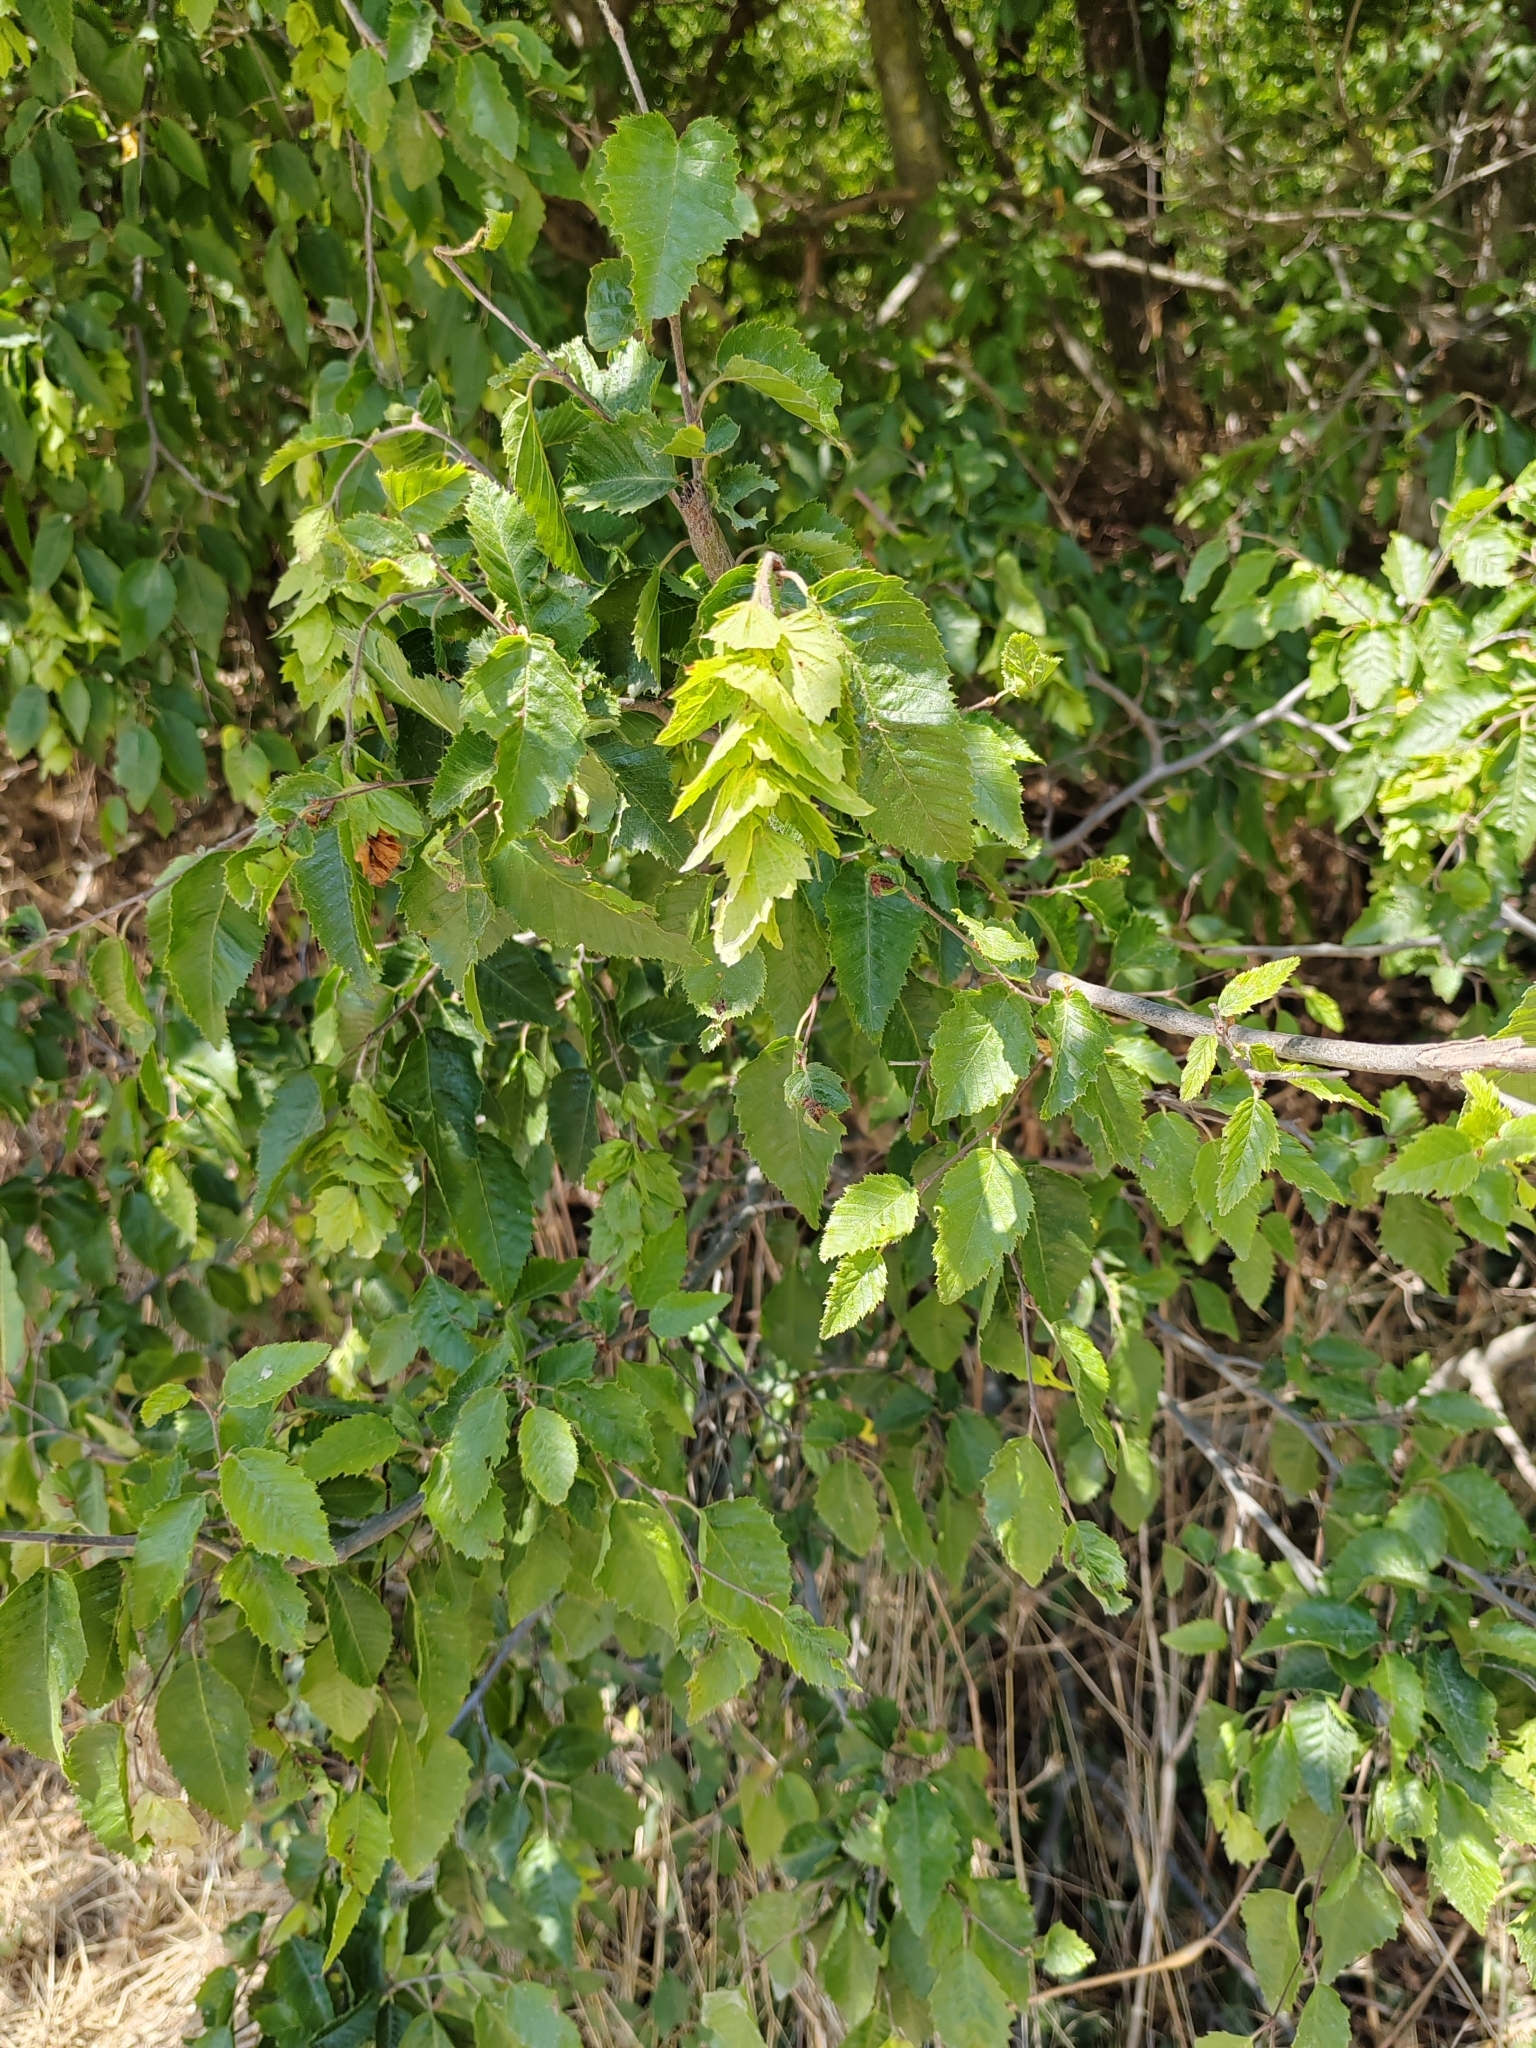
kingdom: Plantae
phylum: Tracheophyta
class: Magnoliopsida
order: Fagales
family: Betulaceae
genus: Carpinus
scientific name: Carpinus orientalis
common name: Eastern hornbeam
